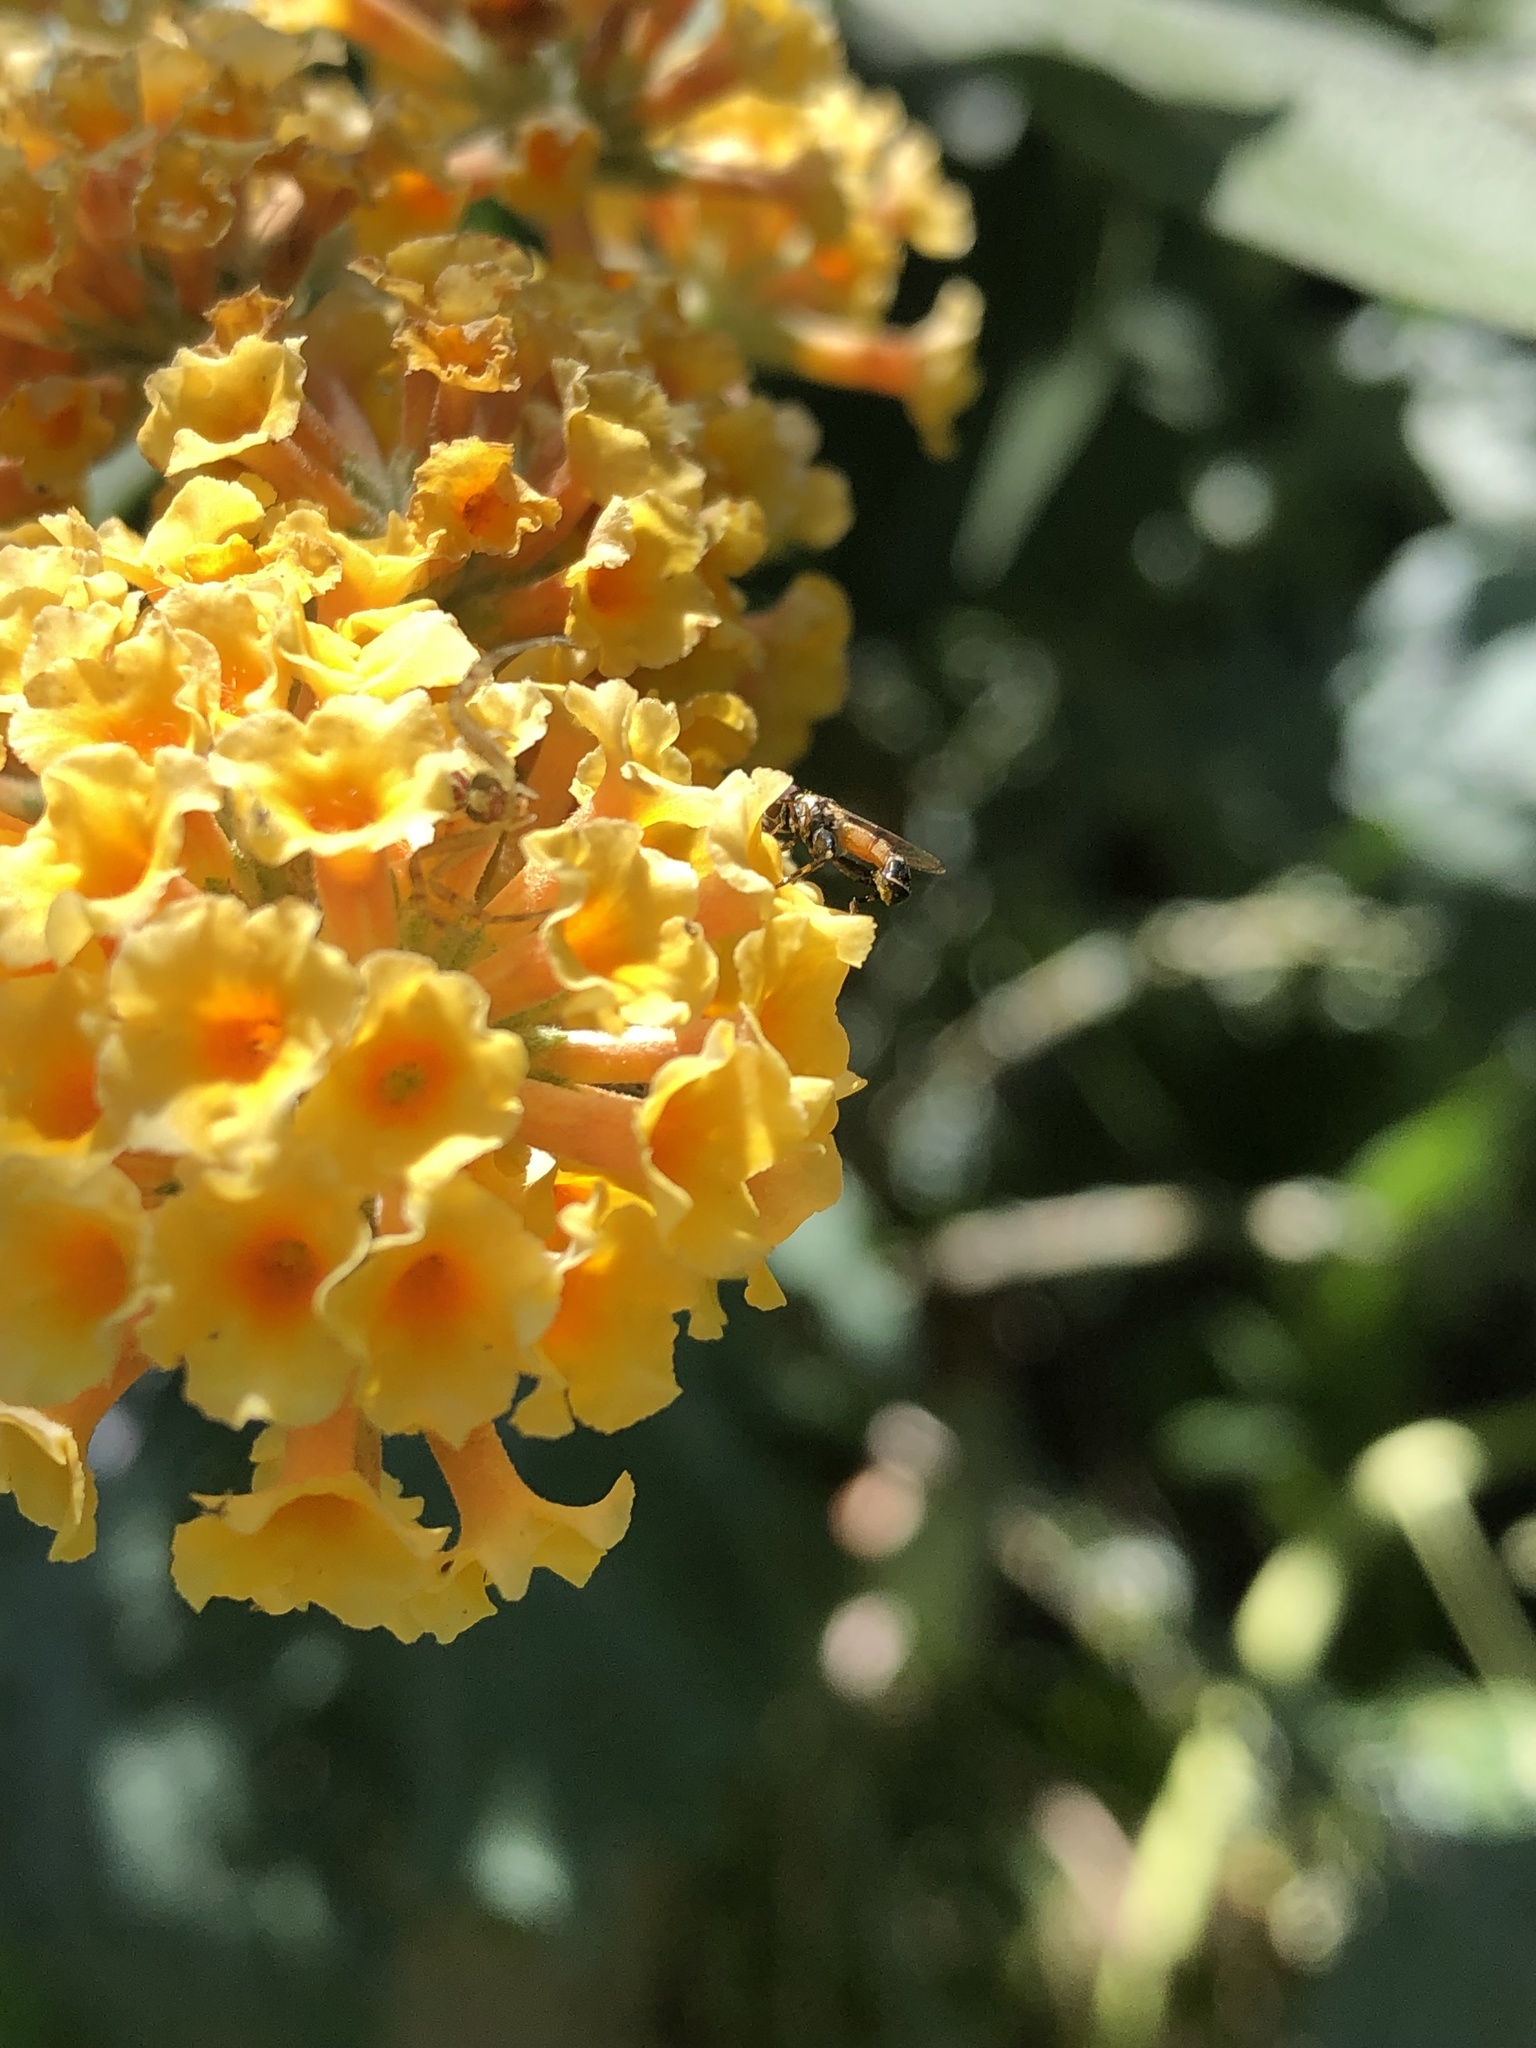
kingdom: Animalia
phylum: Arthropoda
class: Insecta
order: Diptera
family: Syrphidae
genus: Syritta
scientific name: Syritta
